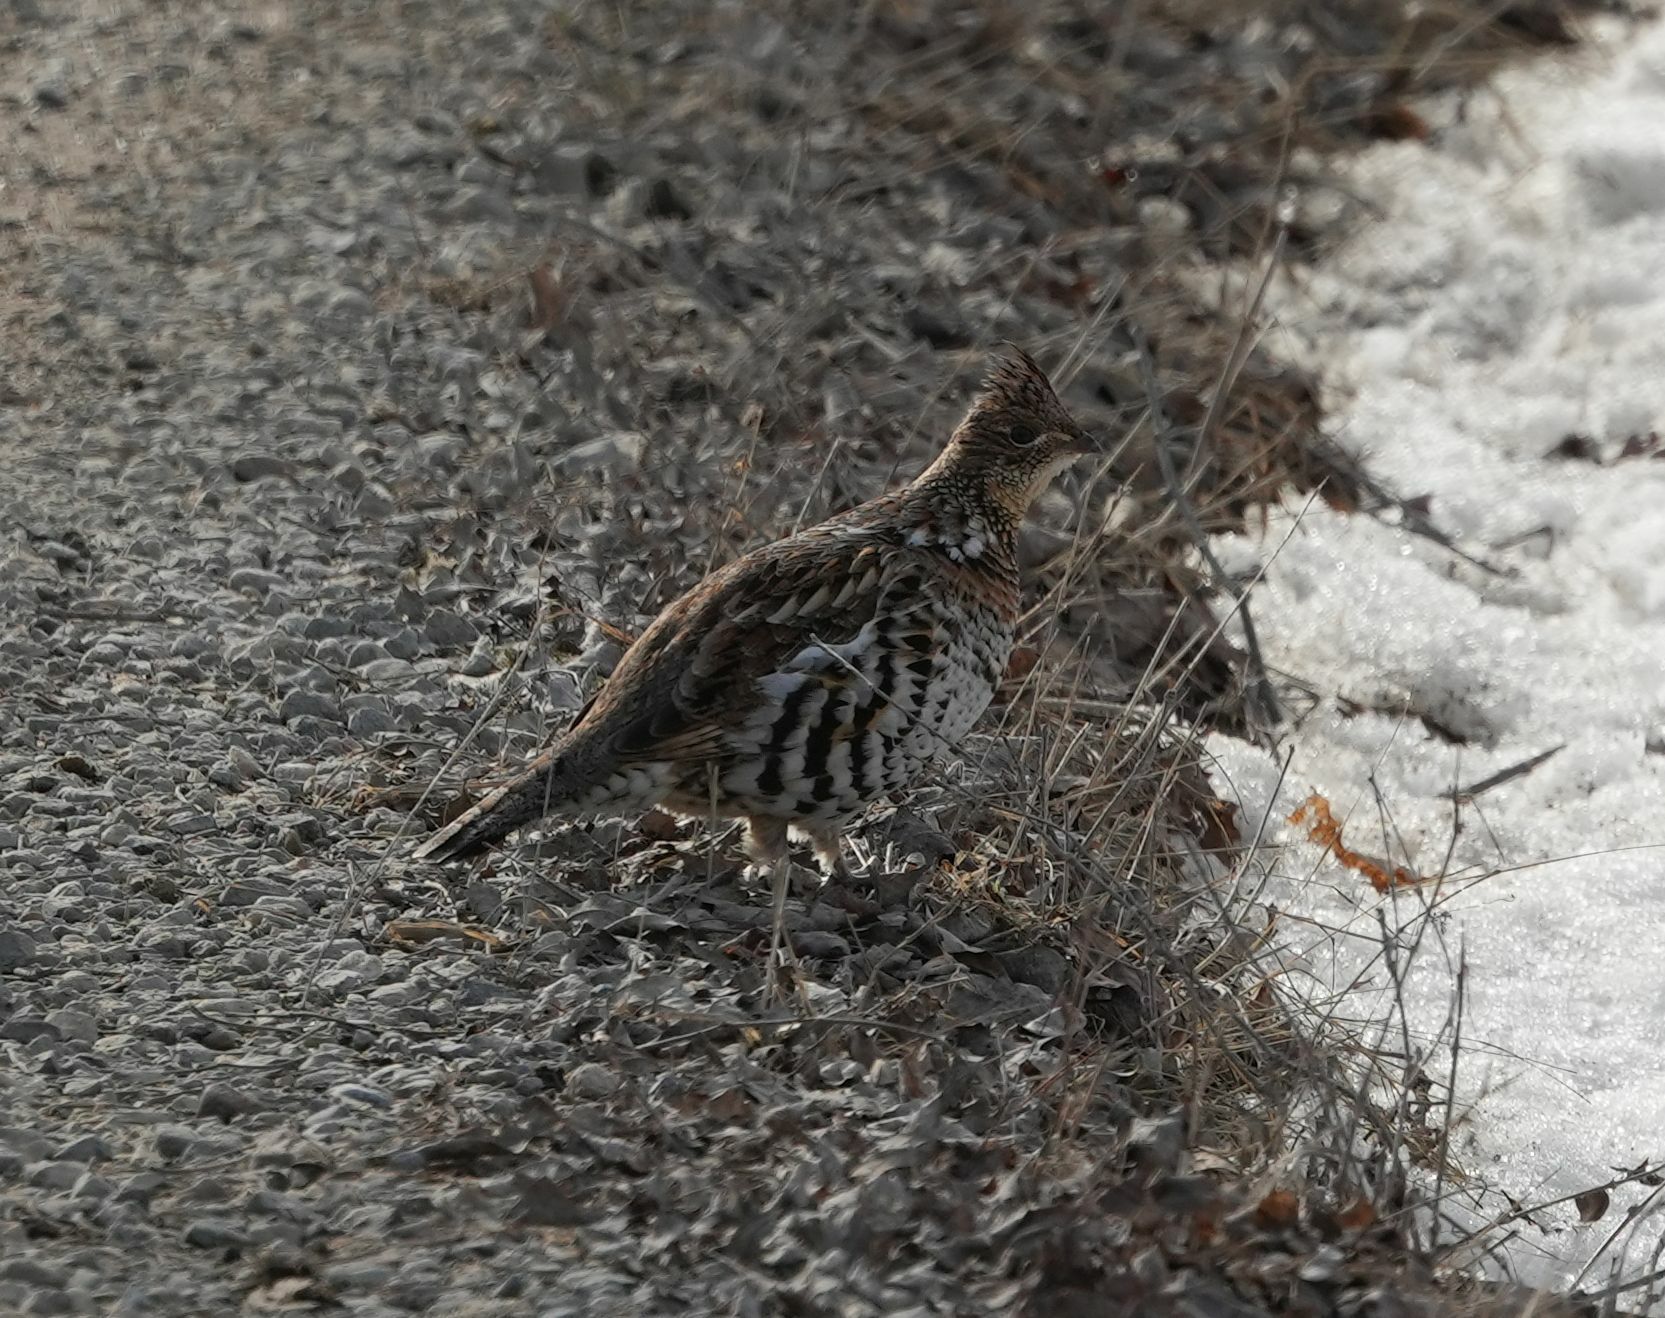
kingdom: Animalia
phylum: Chordata
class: Aves
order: Galliformes
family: Phasianidae
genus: Bonasa
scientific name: Bonasa umbellus
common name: Ruffed grouse
